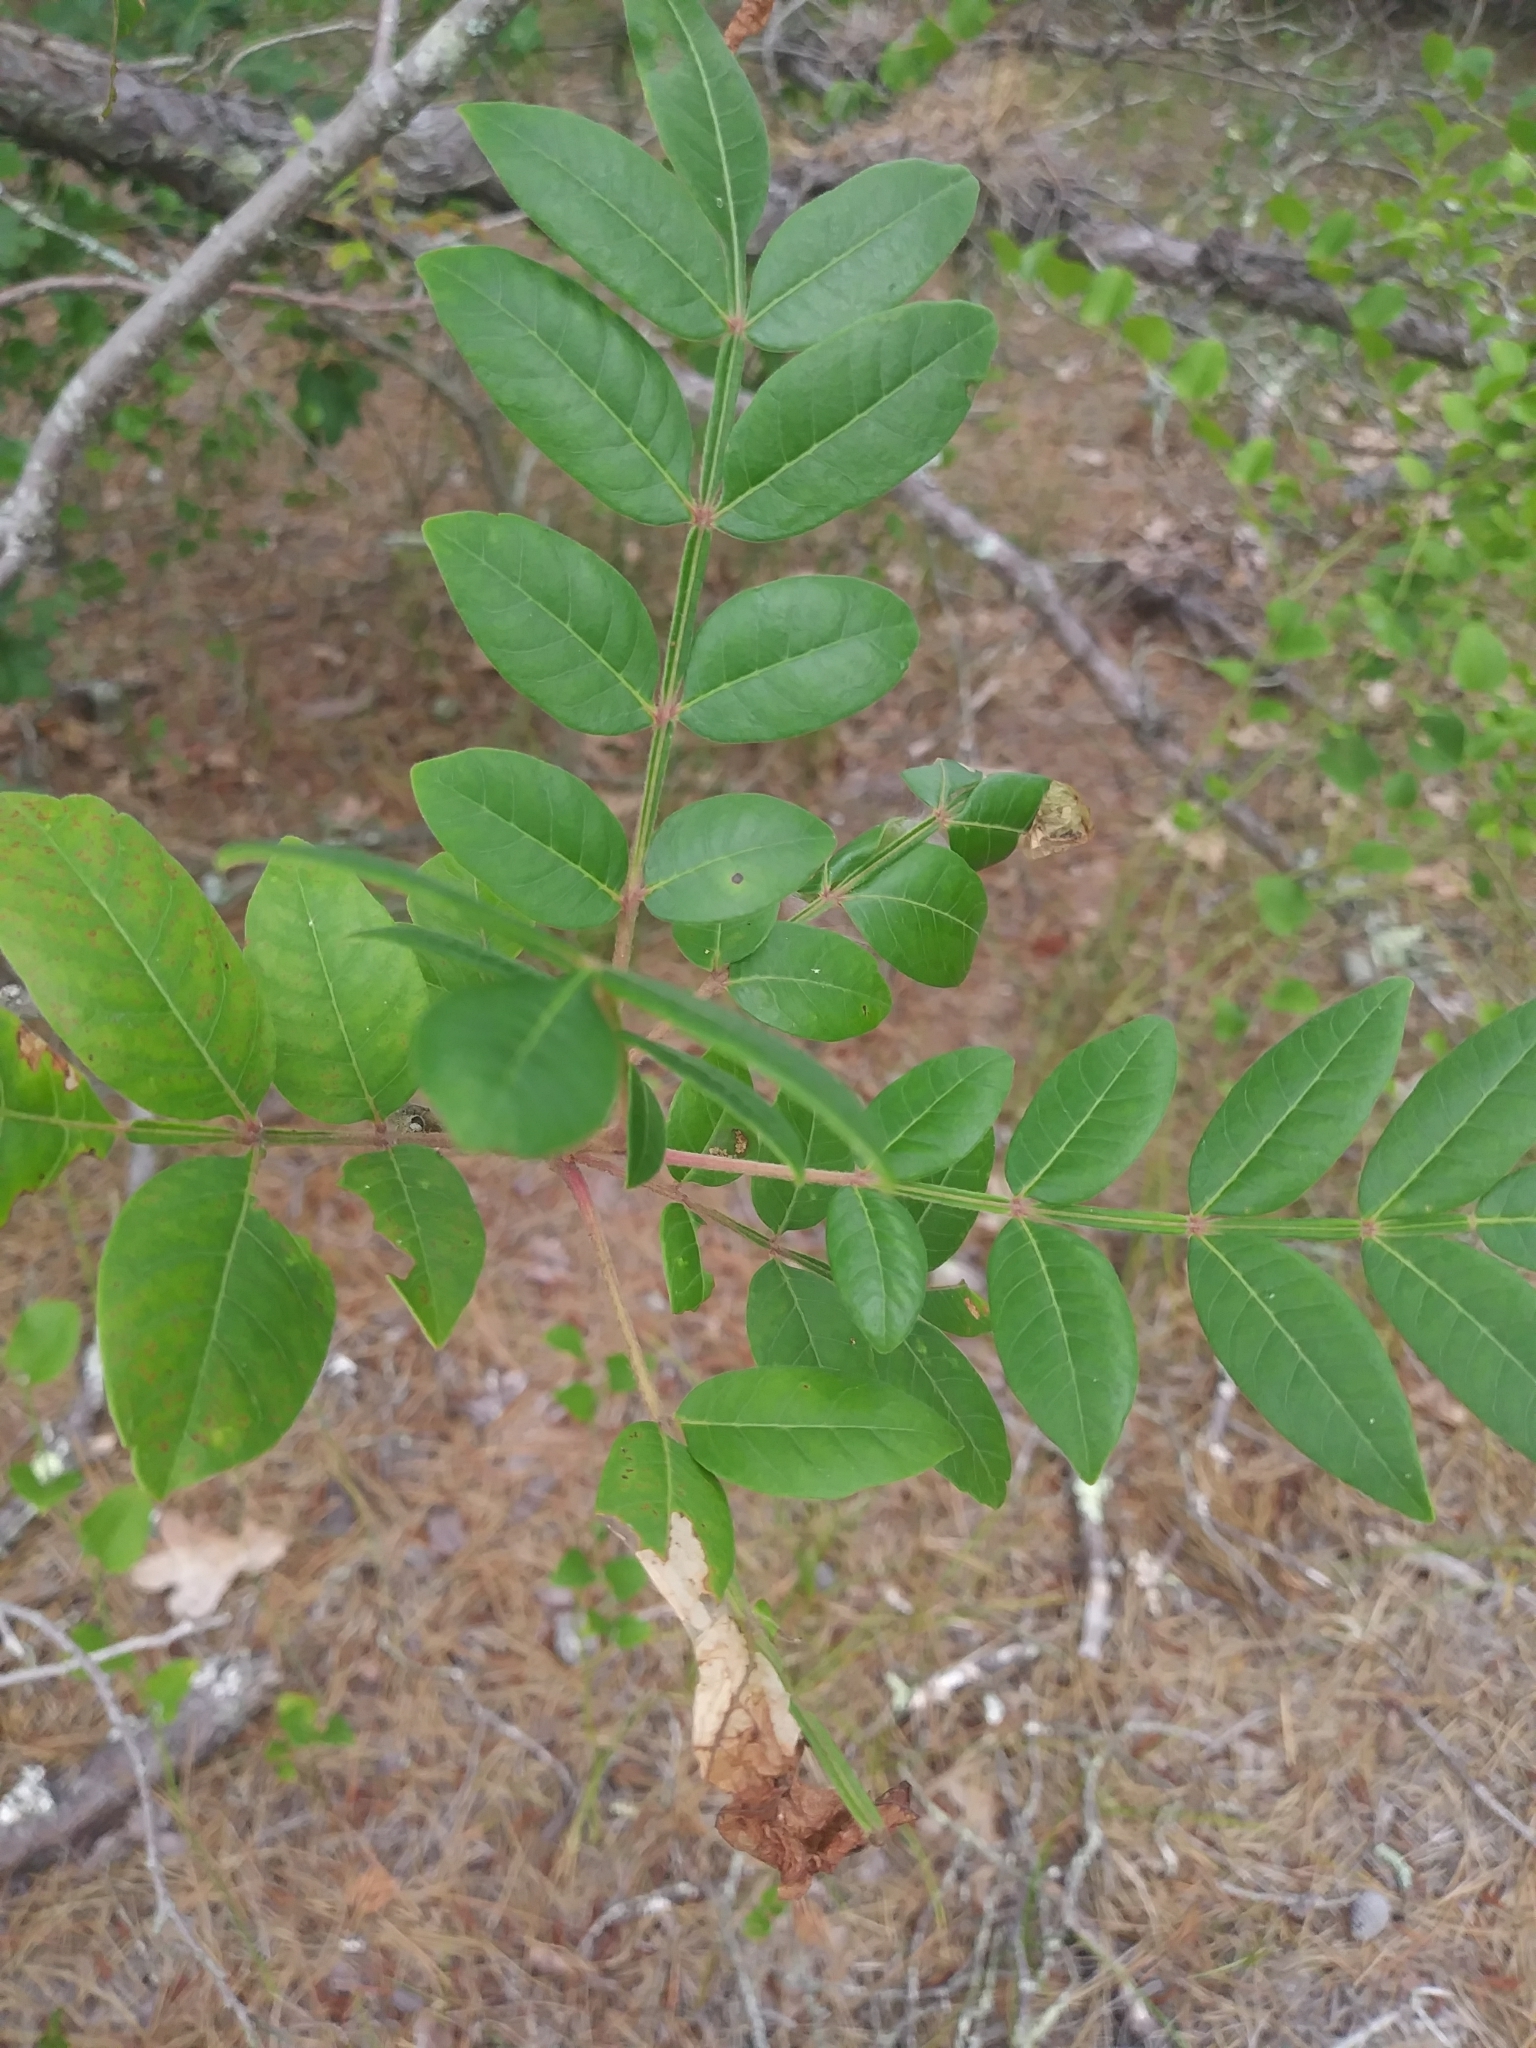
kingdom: Plantae
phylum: Tracheophyta
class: Magnoliopsida
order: Sapindales
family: Anacardiaceae
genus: Rhus
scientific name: Rhus copallina
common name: Shining sumac
